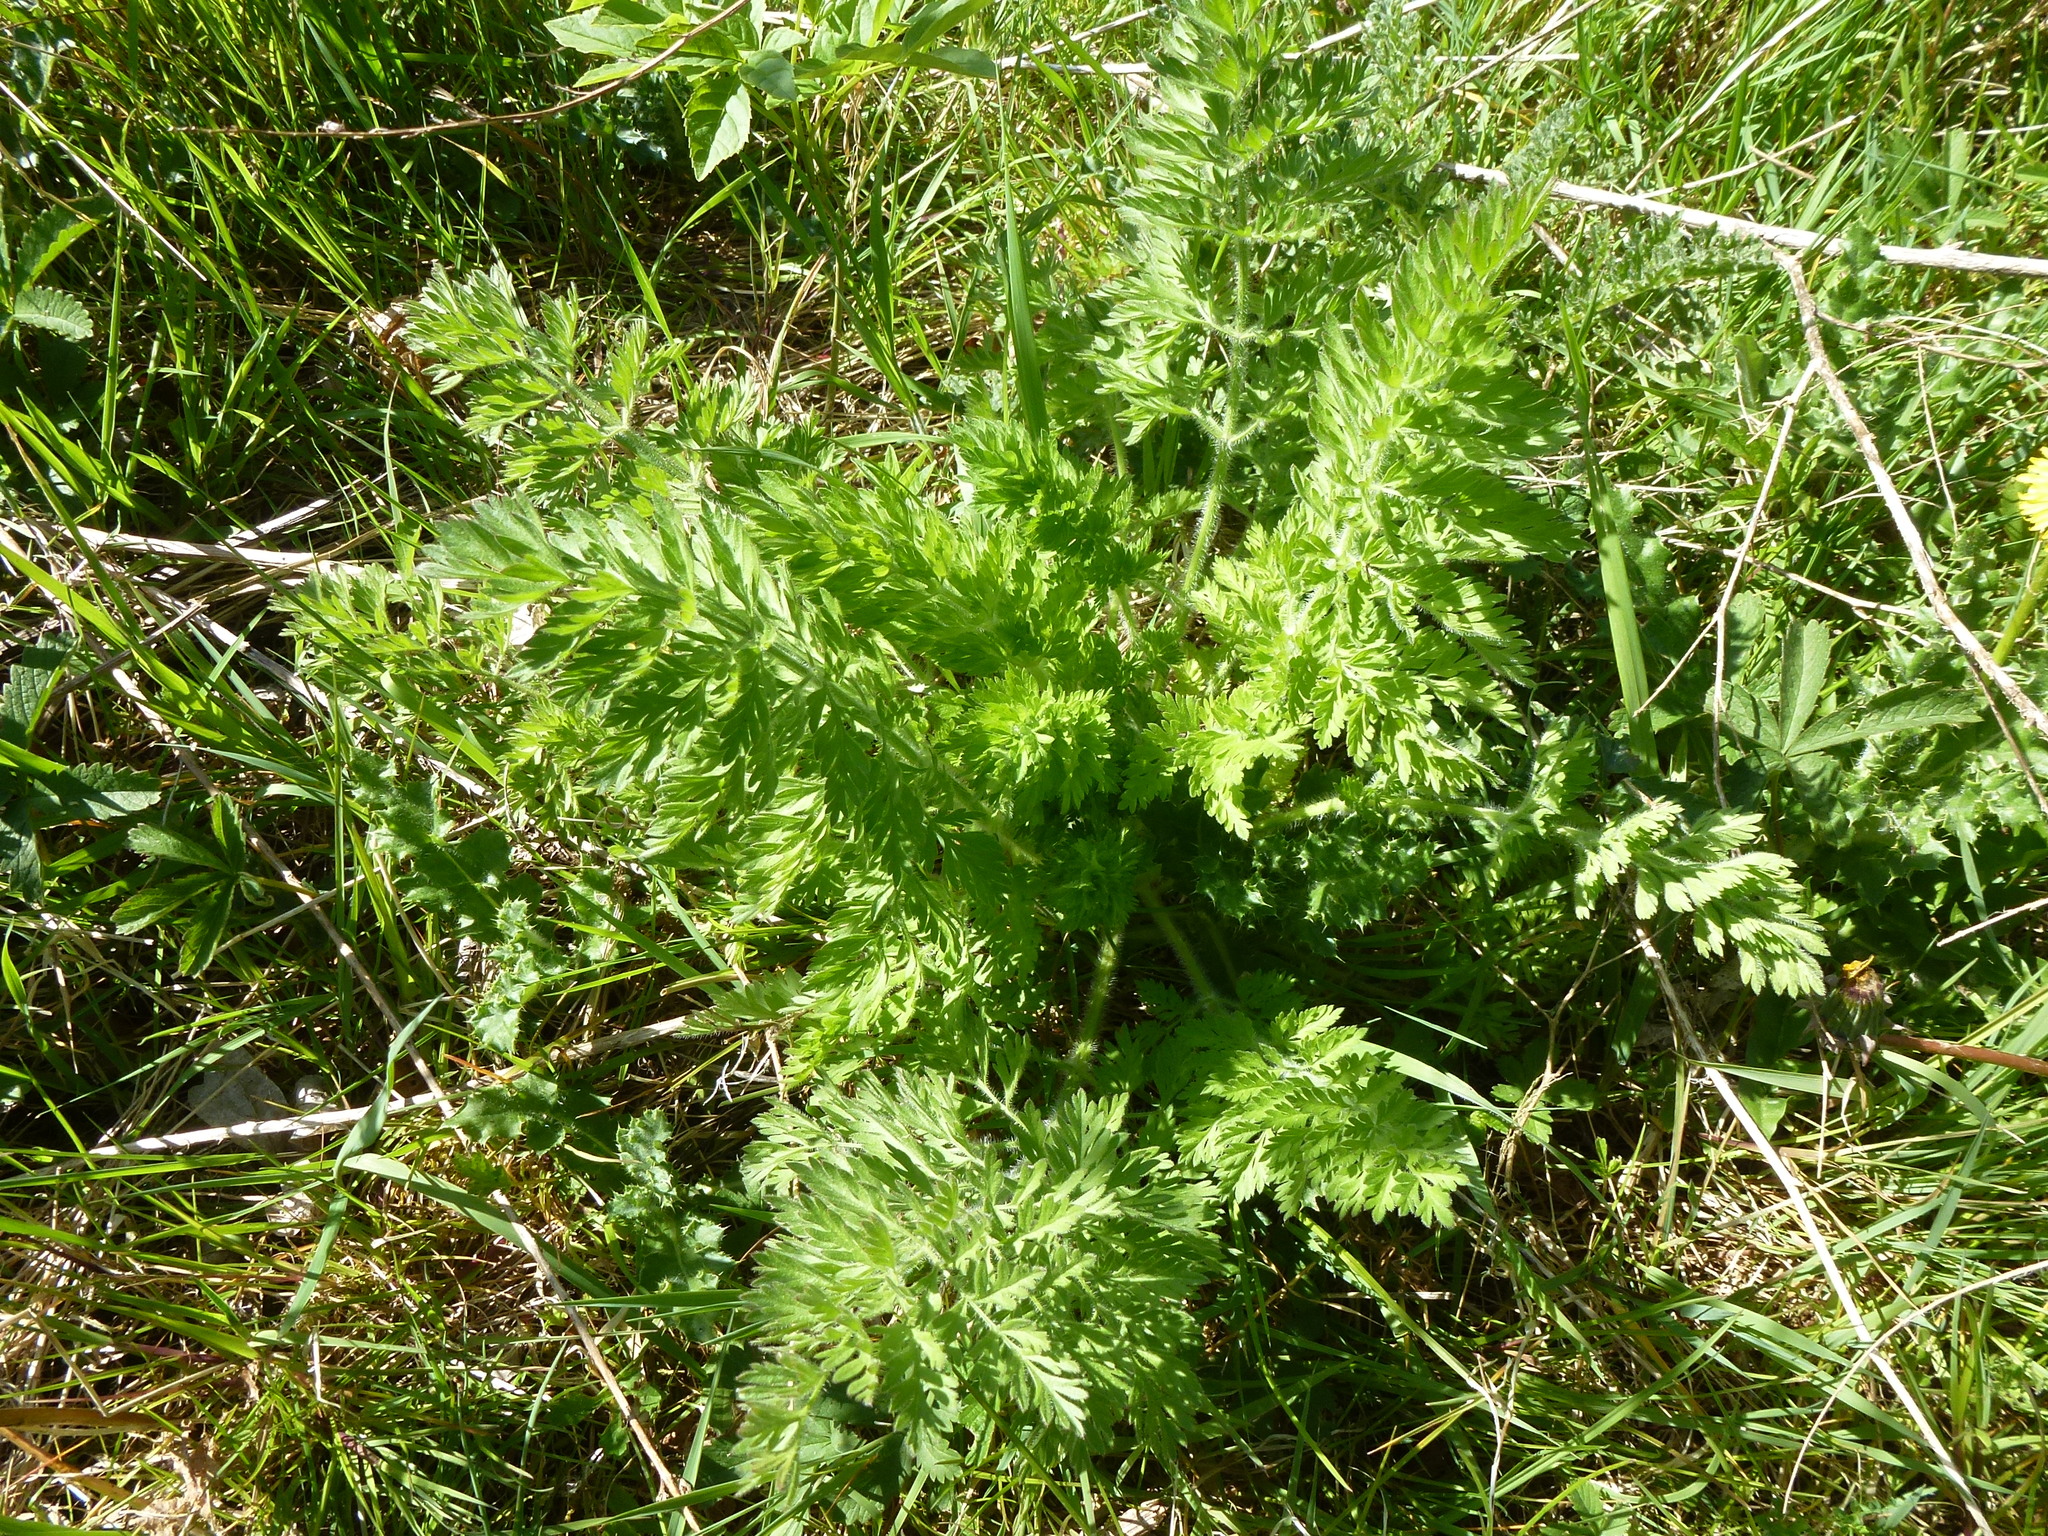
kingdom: Plantae
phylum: Tracheophyta
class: Magnoliopsida
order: Apiales
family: Apiaceae
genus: Daucus
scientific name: Daucus carota
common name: Wild carrot
